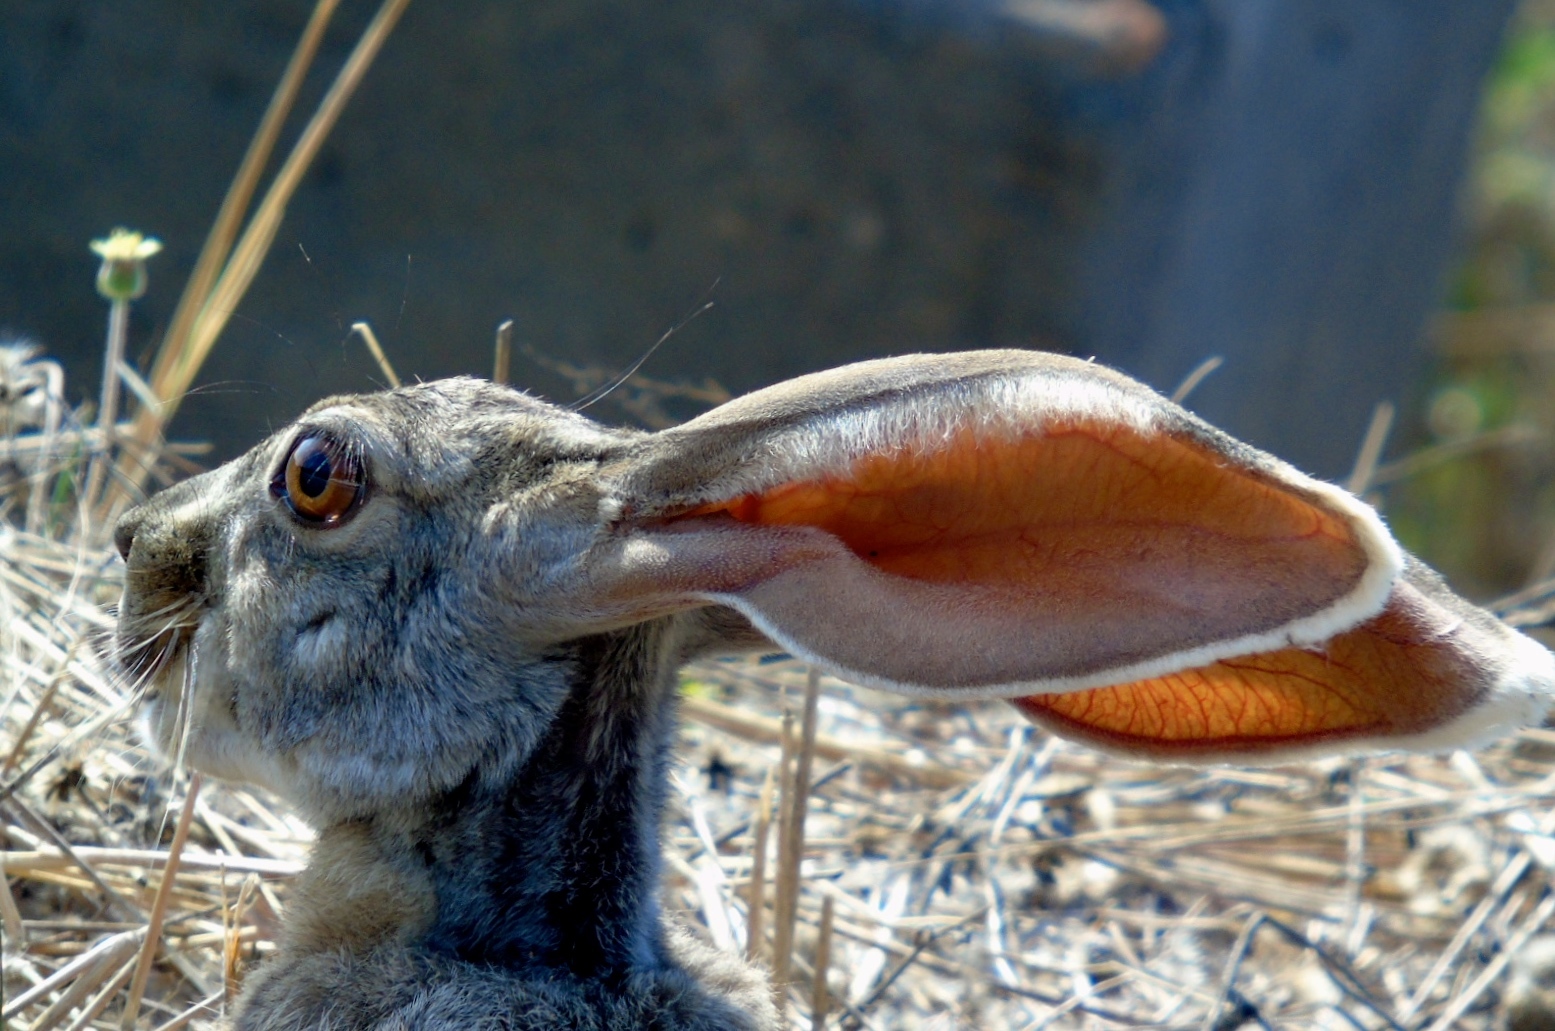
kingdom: Animalia
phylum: Chordata
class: Mammalia
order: Lagomorpha
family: Leporidae
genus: Lepus
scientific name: Lepus alleni
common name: Antelope jackrabbit
